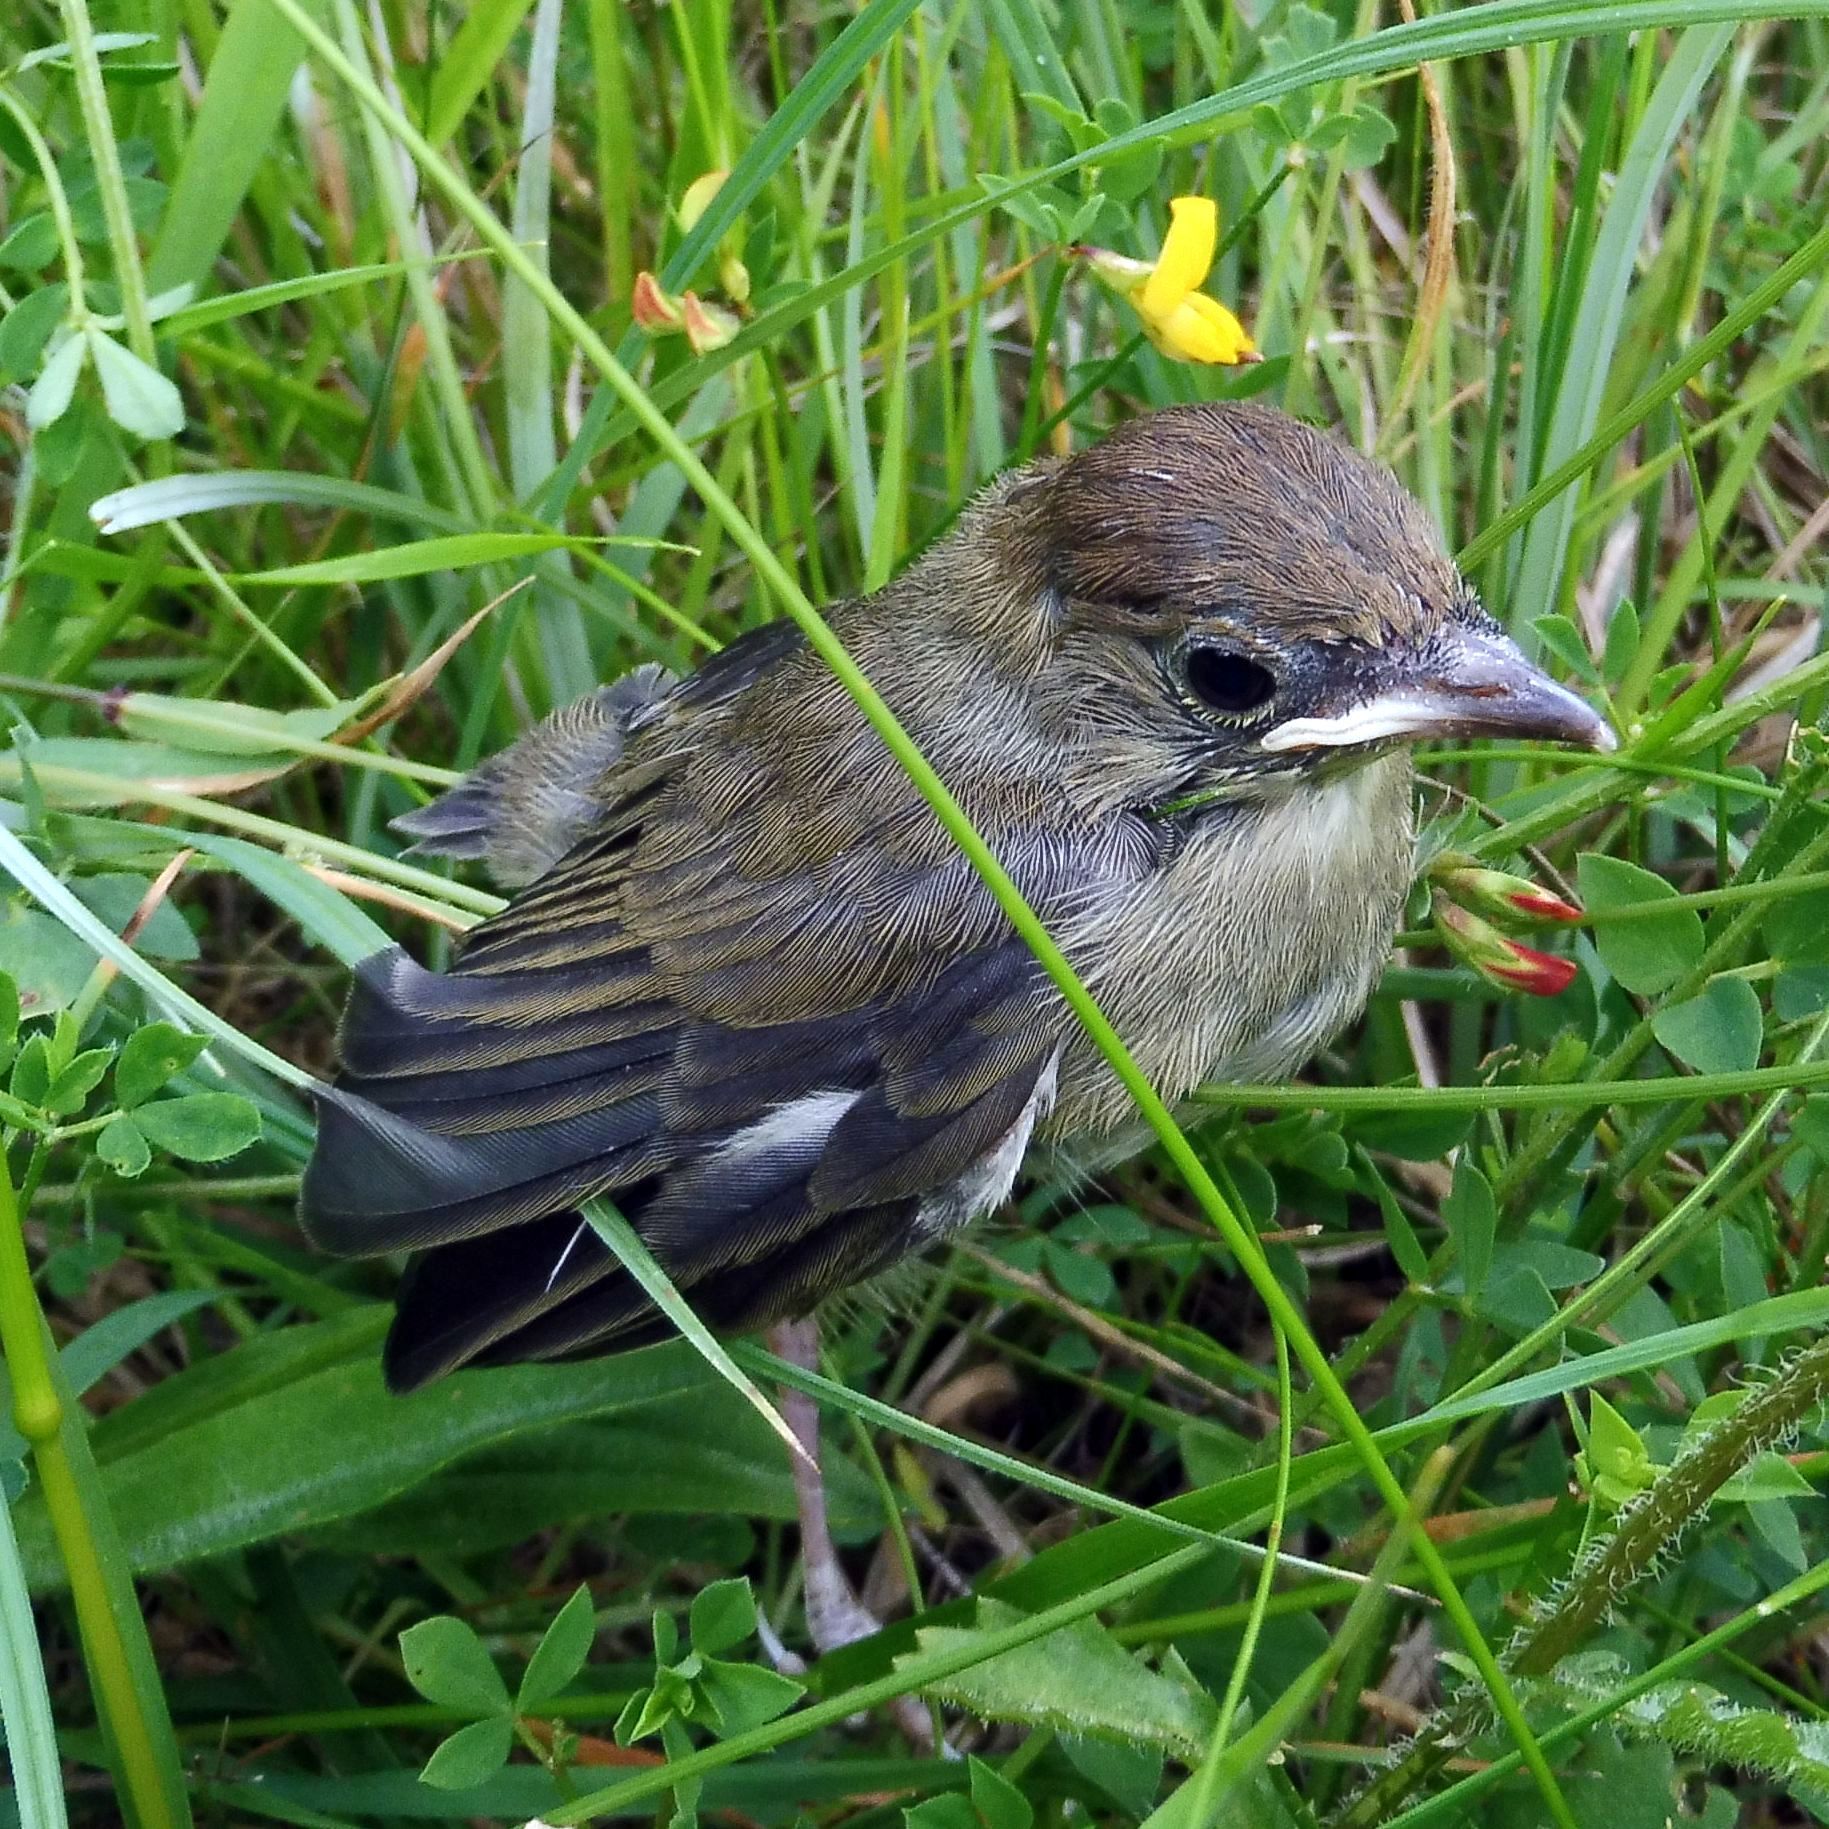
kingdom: Animalia
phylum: Chordata
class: Aves
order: Passeriformes
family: Sylviidae
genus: Sylvia
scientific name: Sylvia atricapilla
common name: Eurasian blackcap
